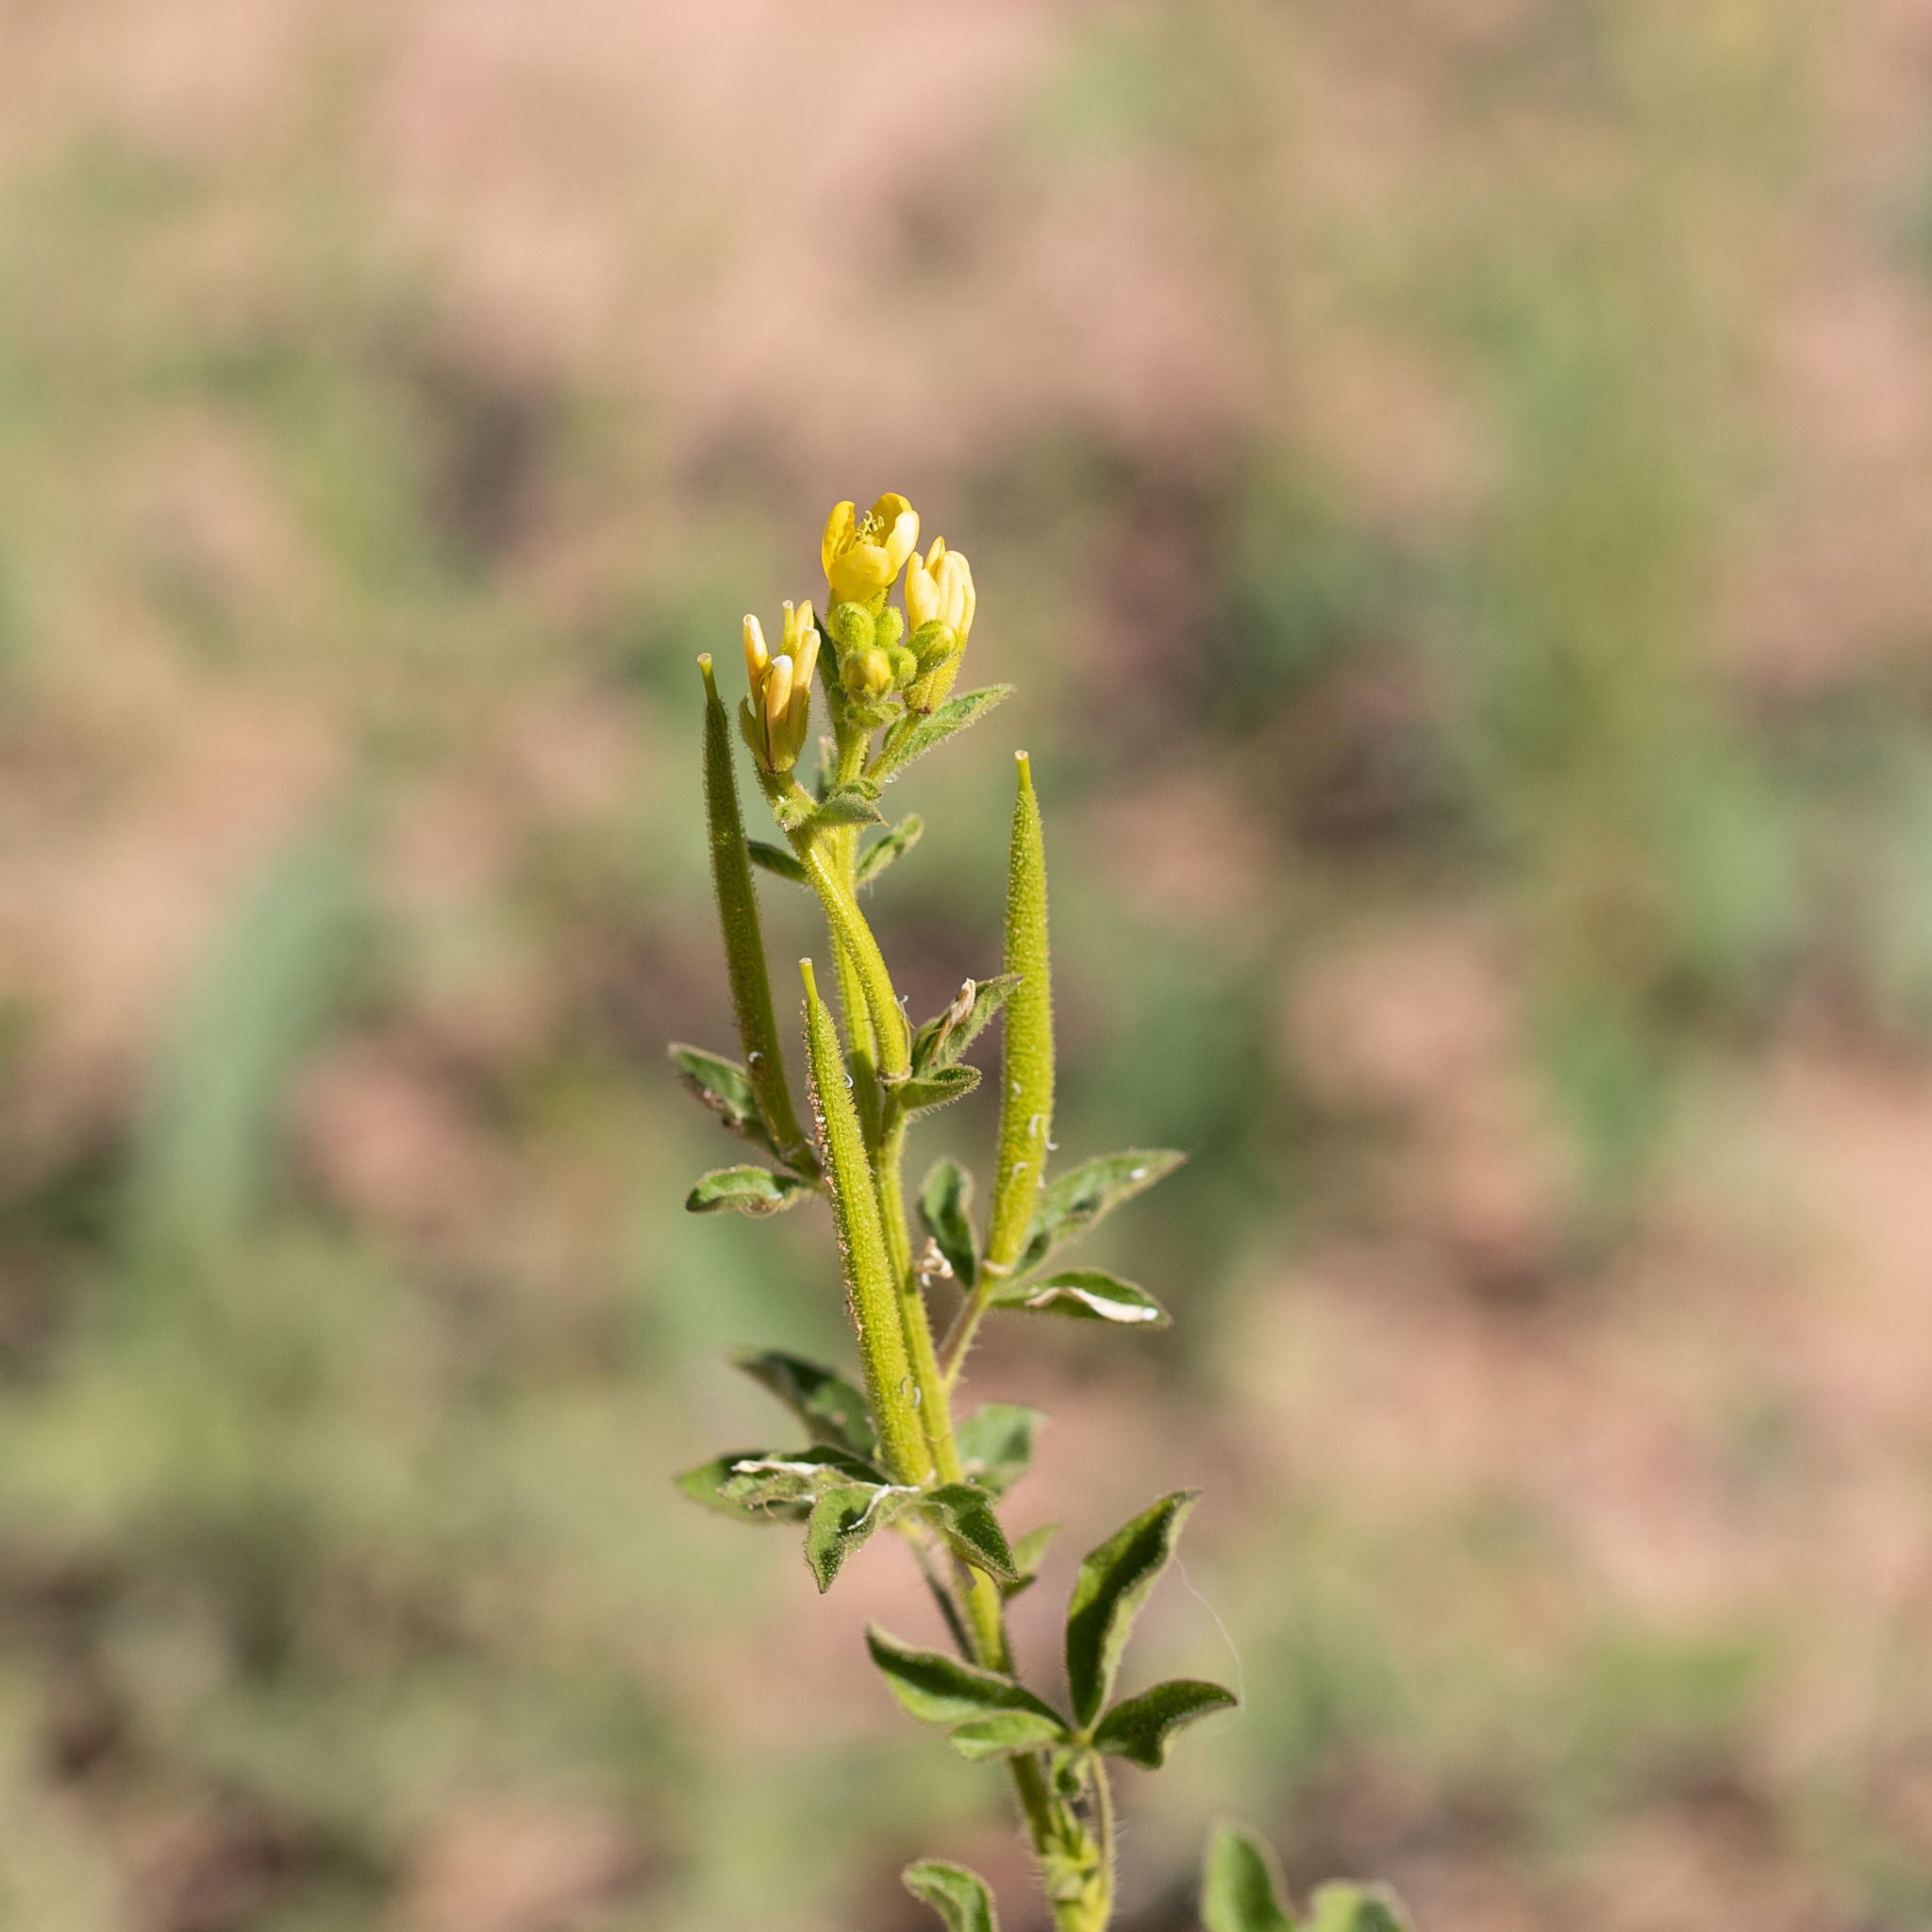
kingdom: Plantae
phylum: Tracheophyta
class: Magnoliopsida
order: Brassicales
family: Cleomaceae
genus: Arivela
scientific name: Arivela viscosa
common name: Asian spiderflower
